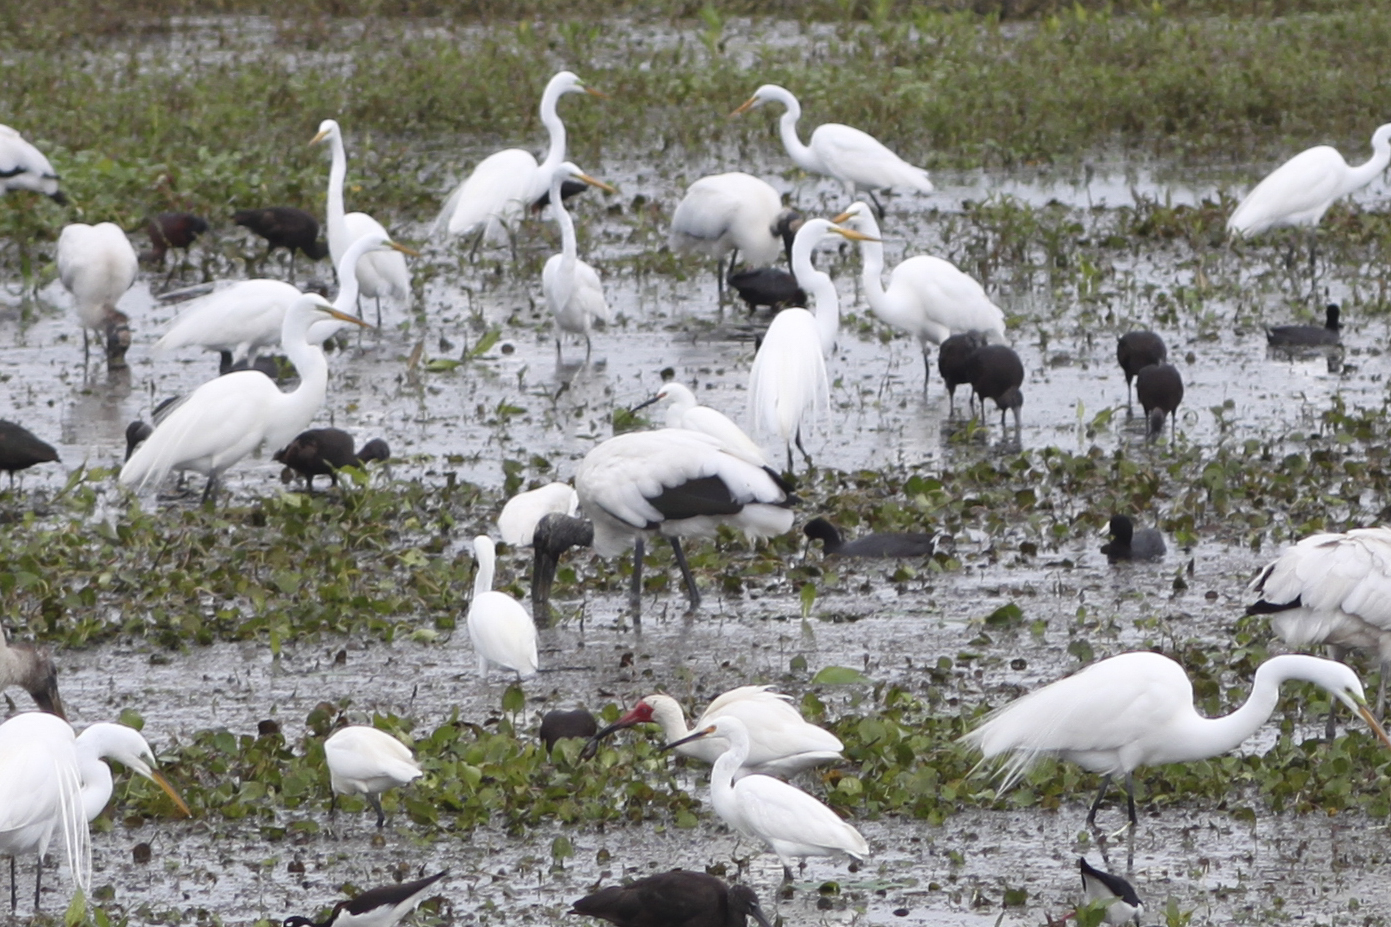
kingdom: Animalia
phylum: Chordata
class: Aves
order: Ciconiiformes
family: Ciconiidae
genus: Mycteria
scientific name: Mycteria americana
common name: Wood stork
